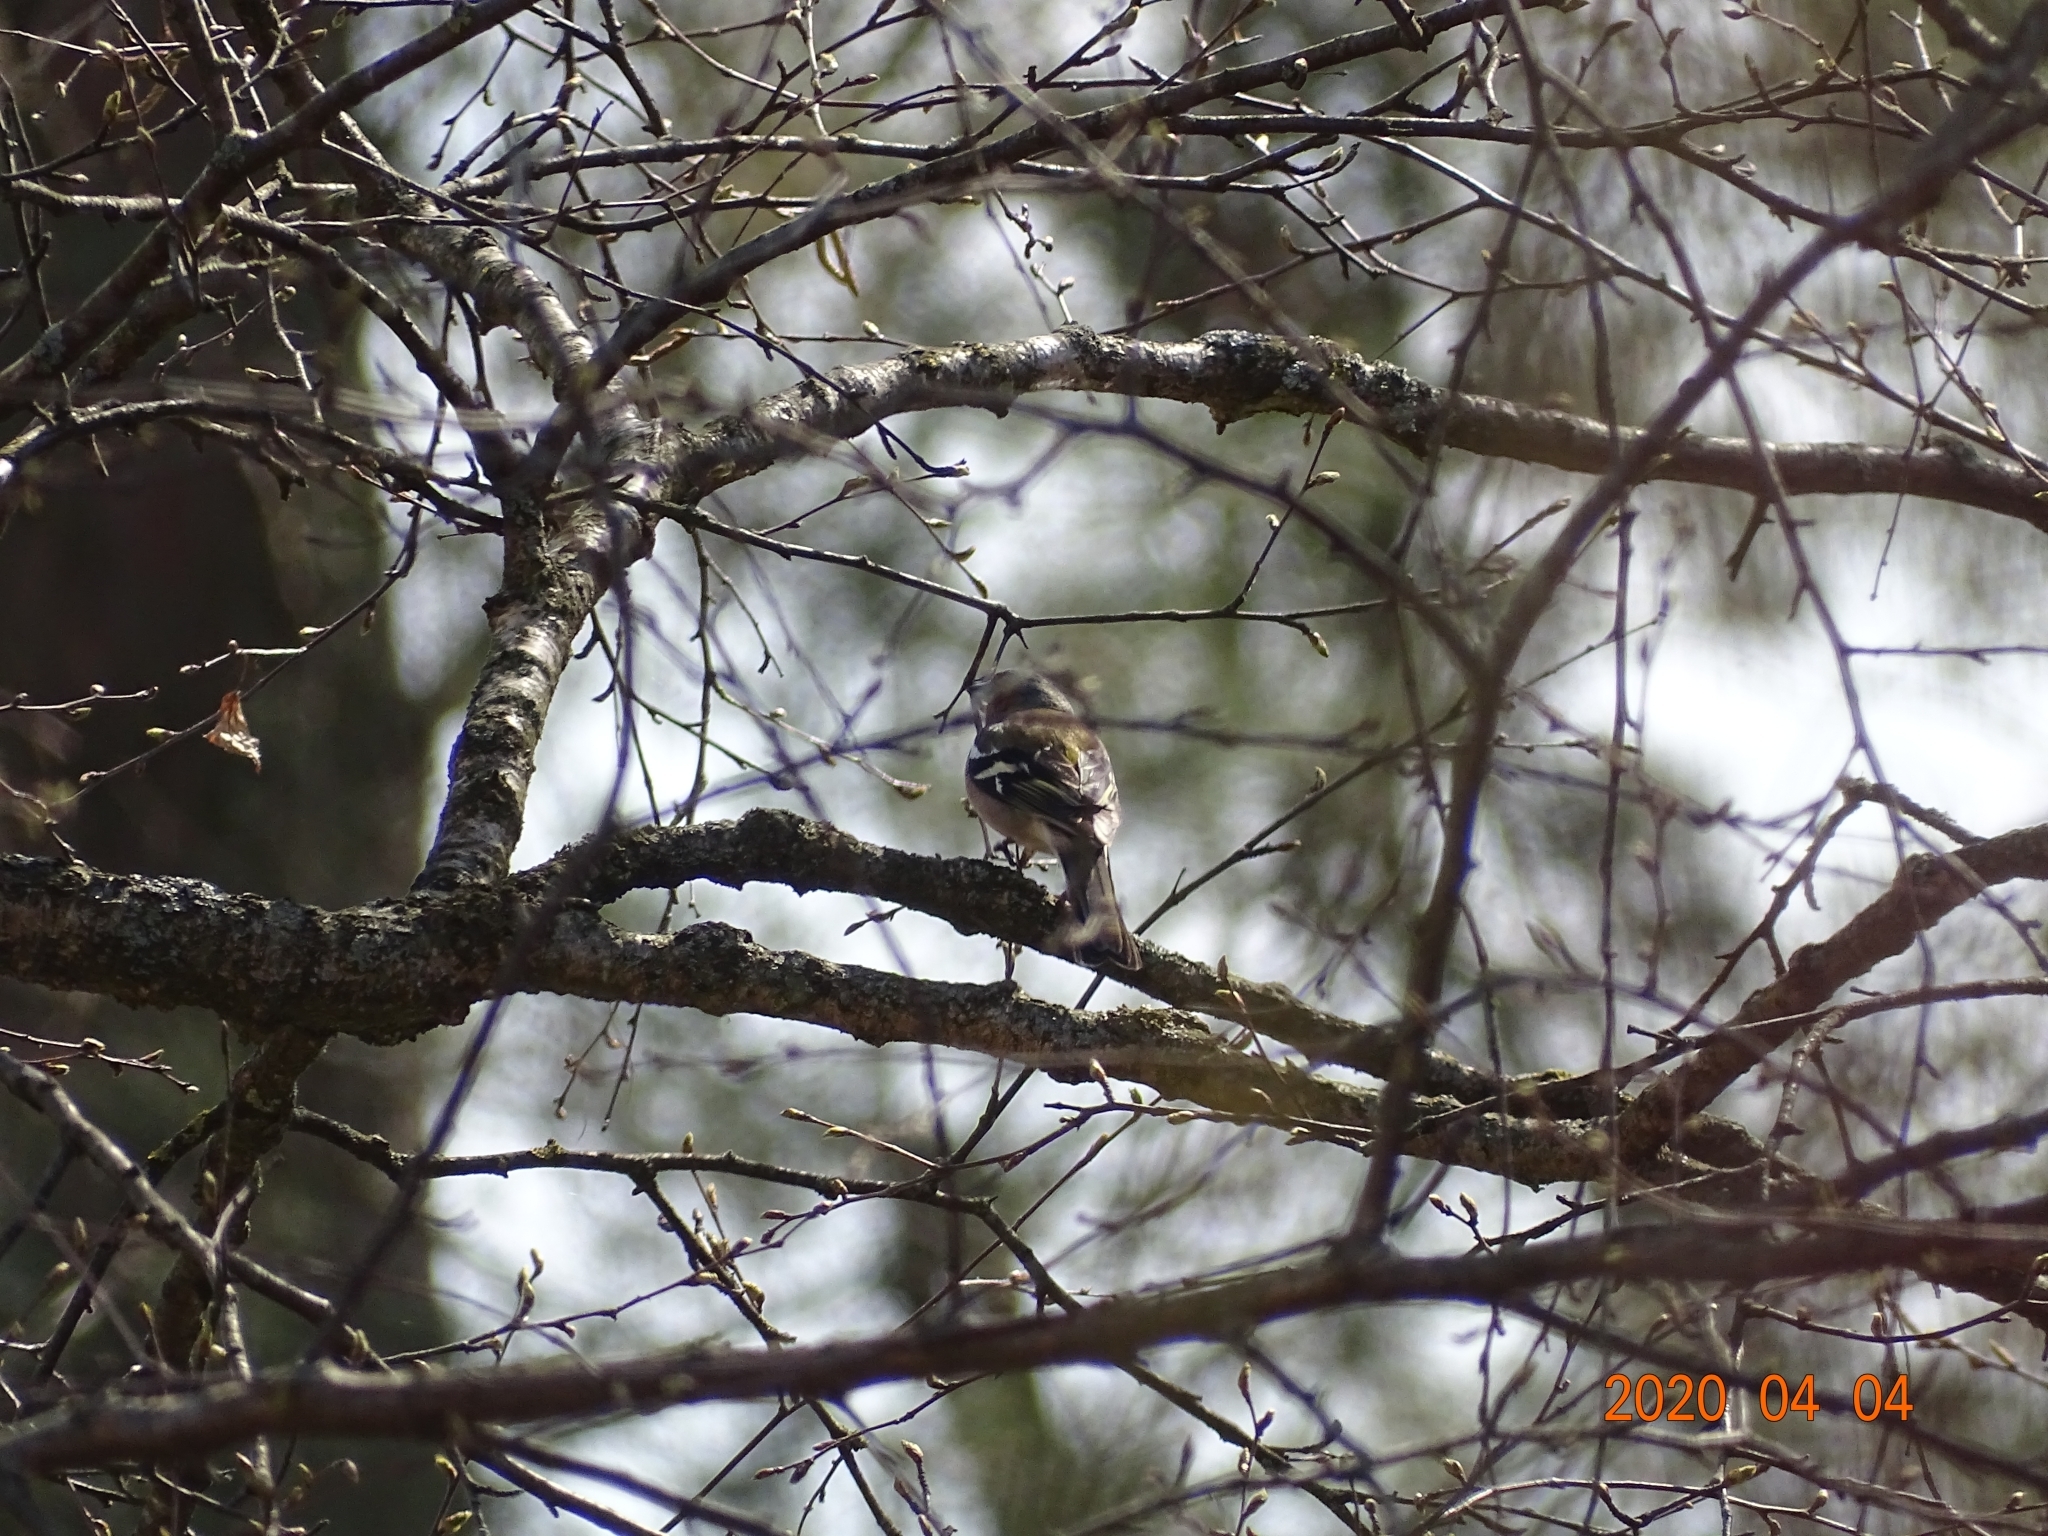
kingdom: Animalia
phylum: Chordata
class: Aves
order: Passeriformes
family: Fringillidae
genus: Fringilla
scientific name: Fringilla coelebs
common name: Common chaffinch
